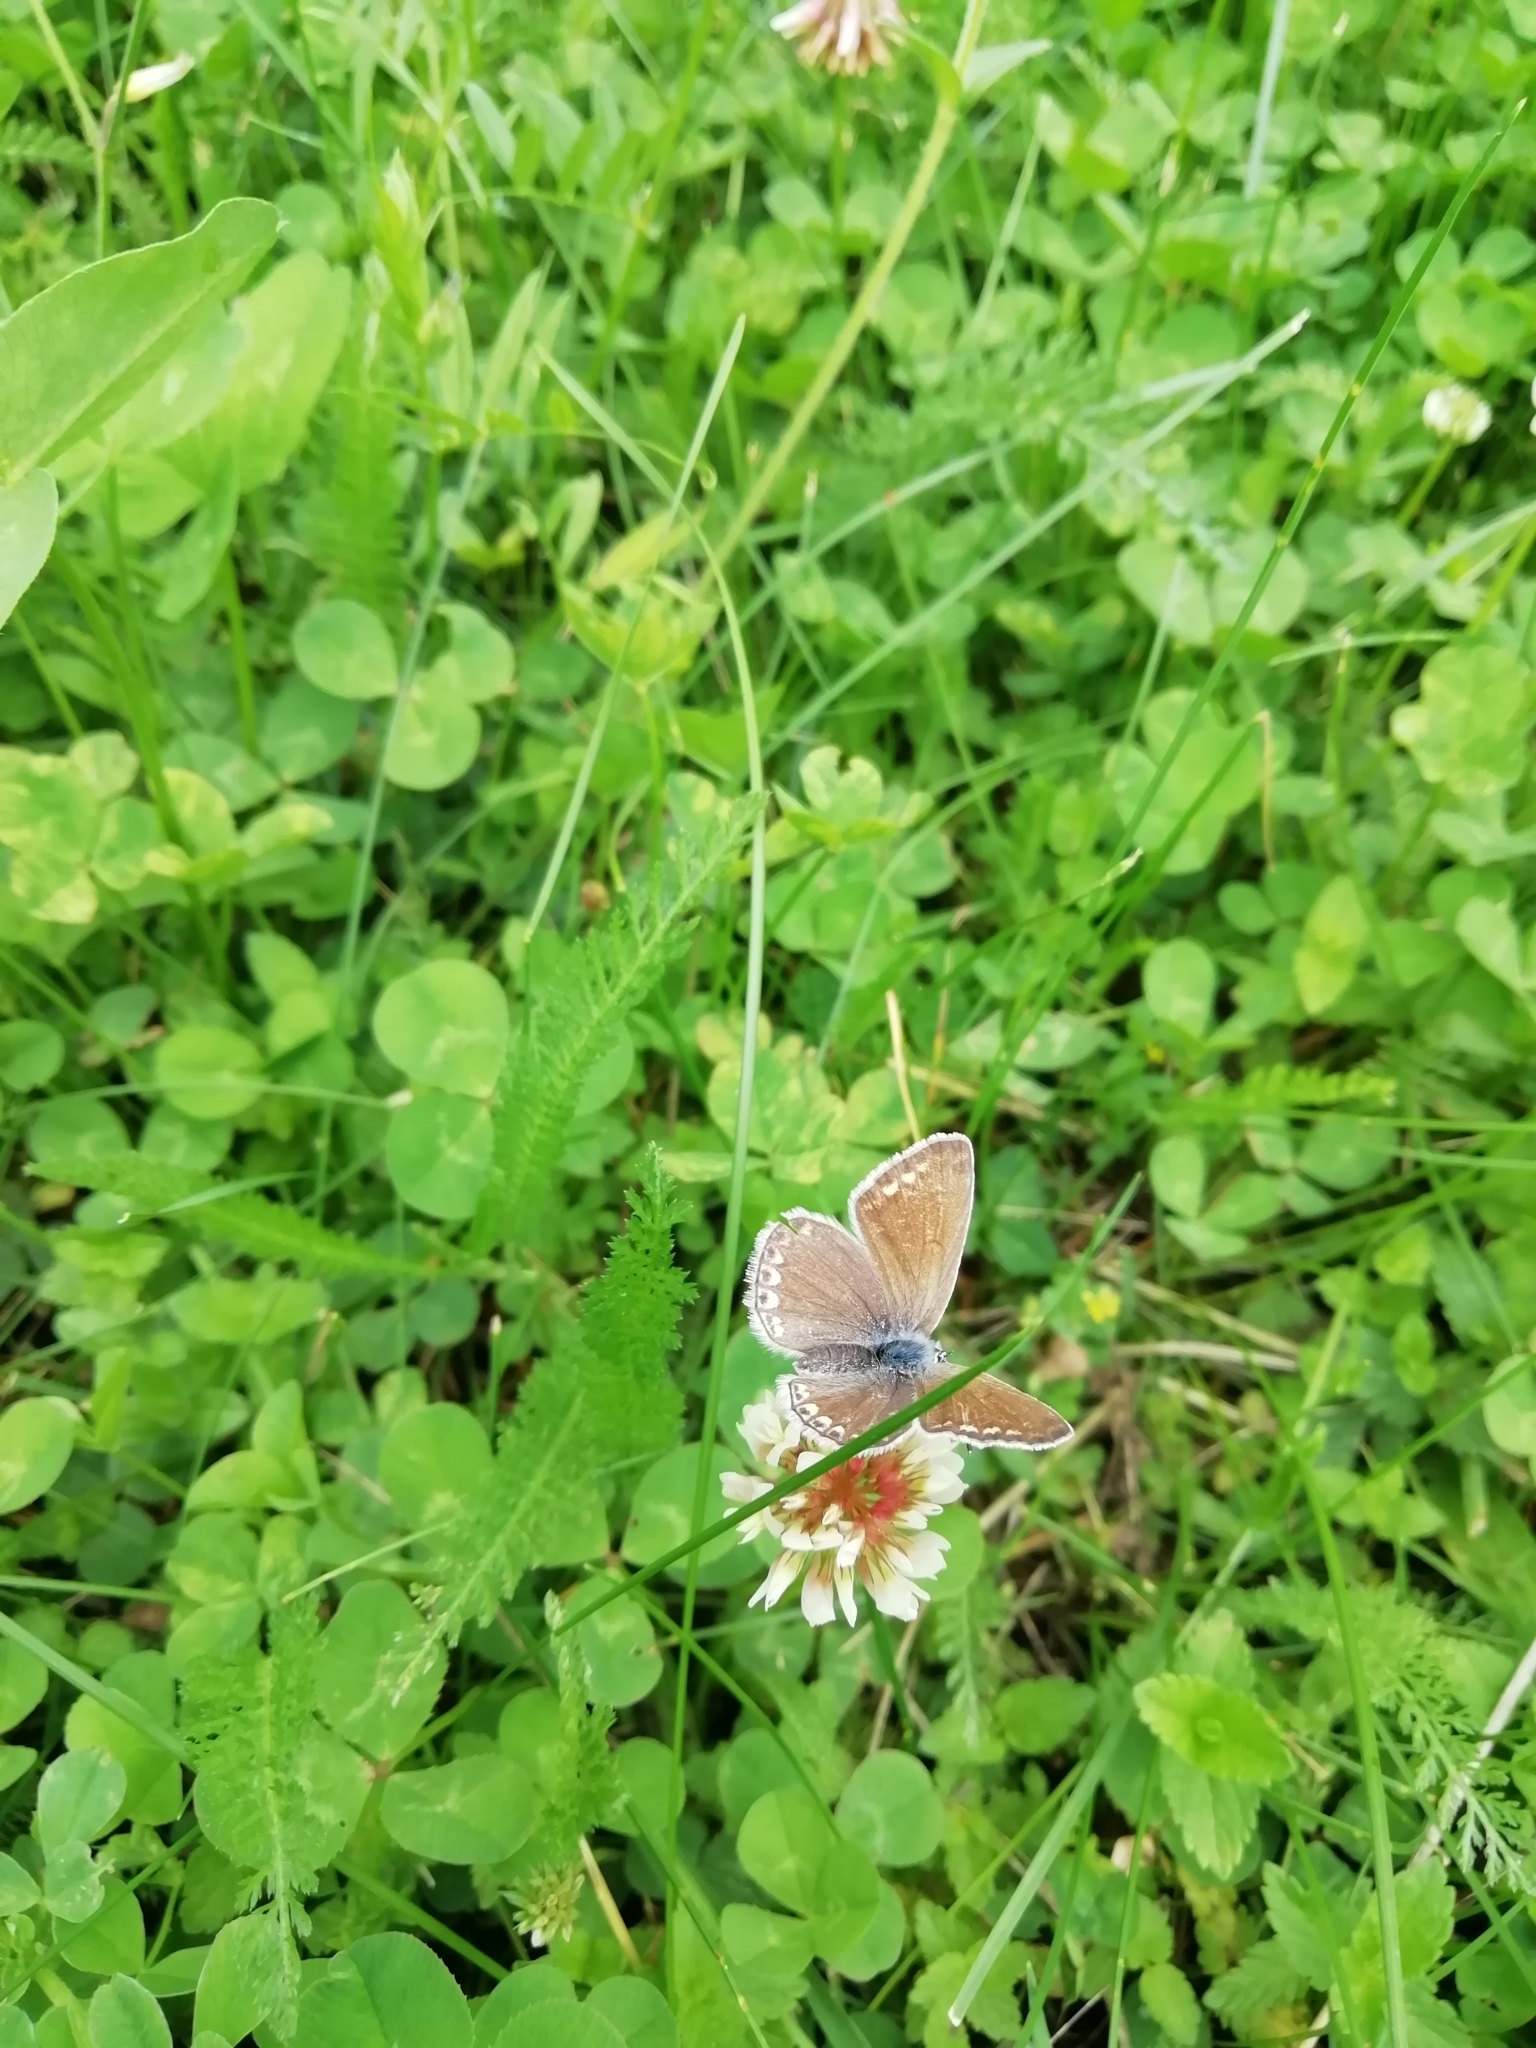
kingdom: Animalia
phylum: Arthropoda
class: Insecta
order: Lepidoptera
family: Lycaenidae
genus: Polyommatus
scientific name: Polyommatus icarus
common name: Common blue
